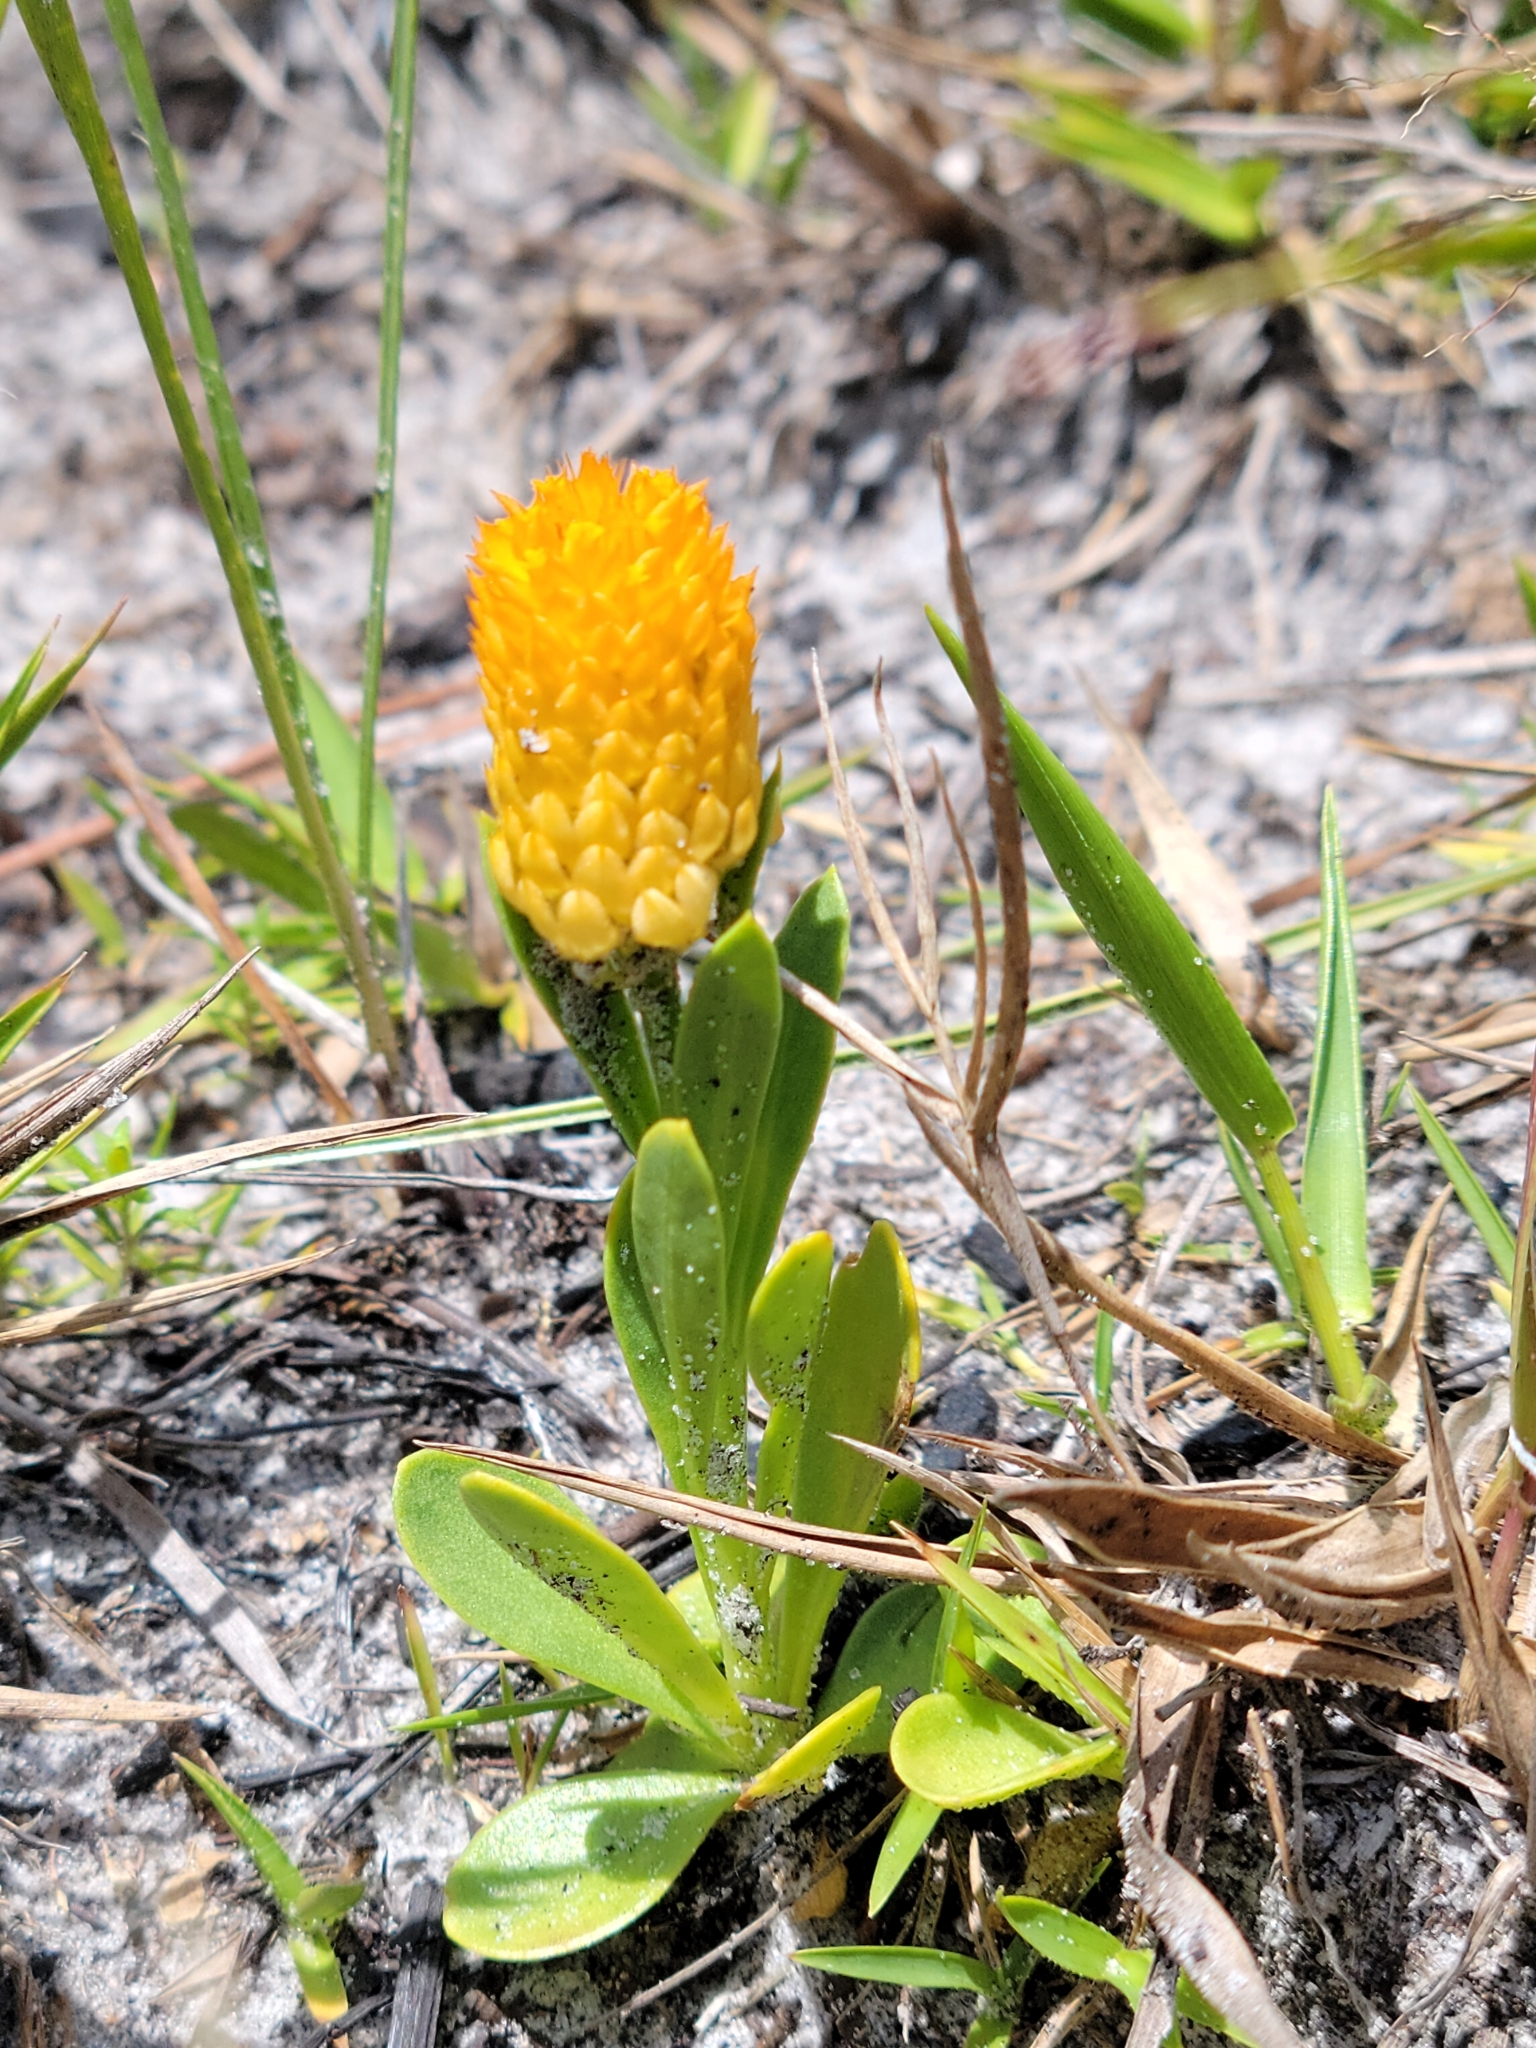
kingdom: Plantae
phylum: Tracheophyta
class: Magnoliopsida
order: Fabales
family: Polygalaceae
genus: Polygala
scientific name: Polygala lutea
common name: Orange milkwort
